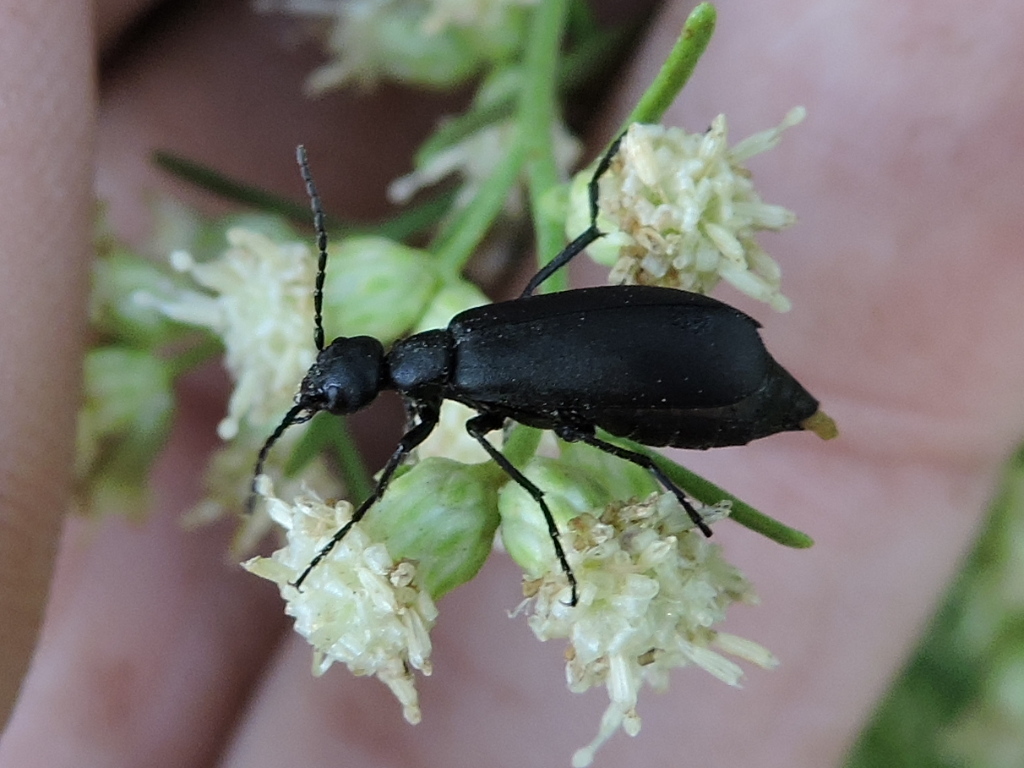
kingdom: Animalia
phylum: Arthropoda
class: Insecta
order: Coleoptera
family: Meloidae
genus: Epicauta
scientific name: Epicauta pensylvanica
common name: Black blister beetle
